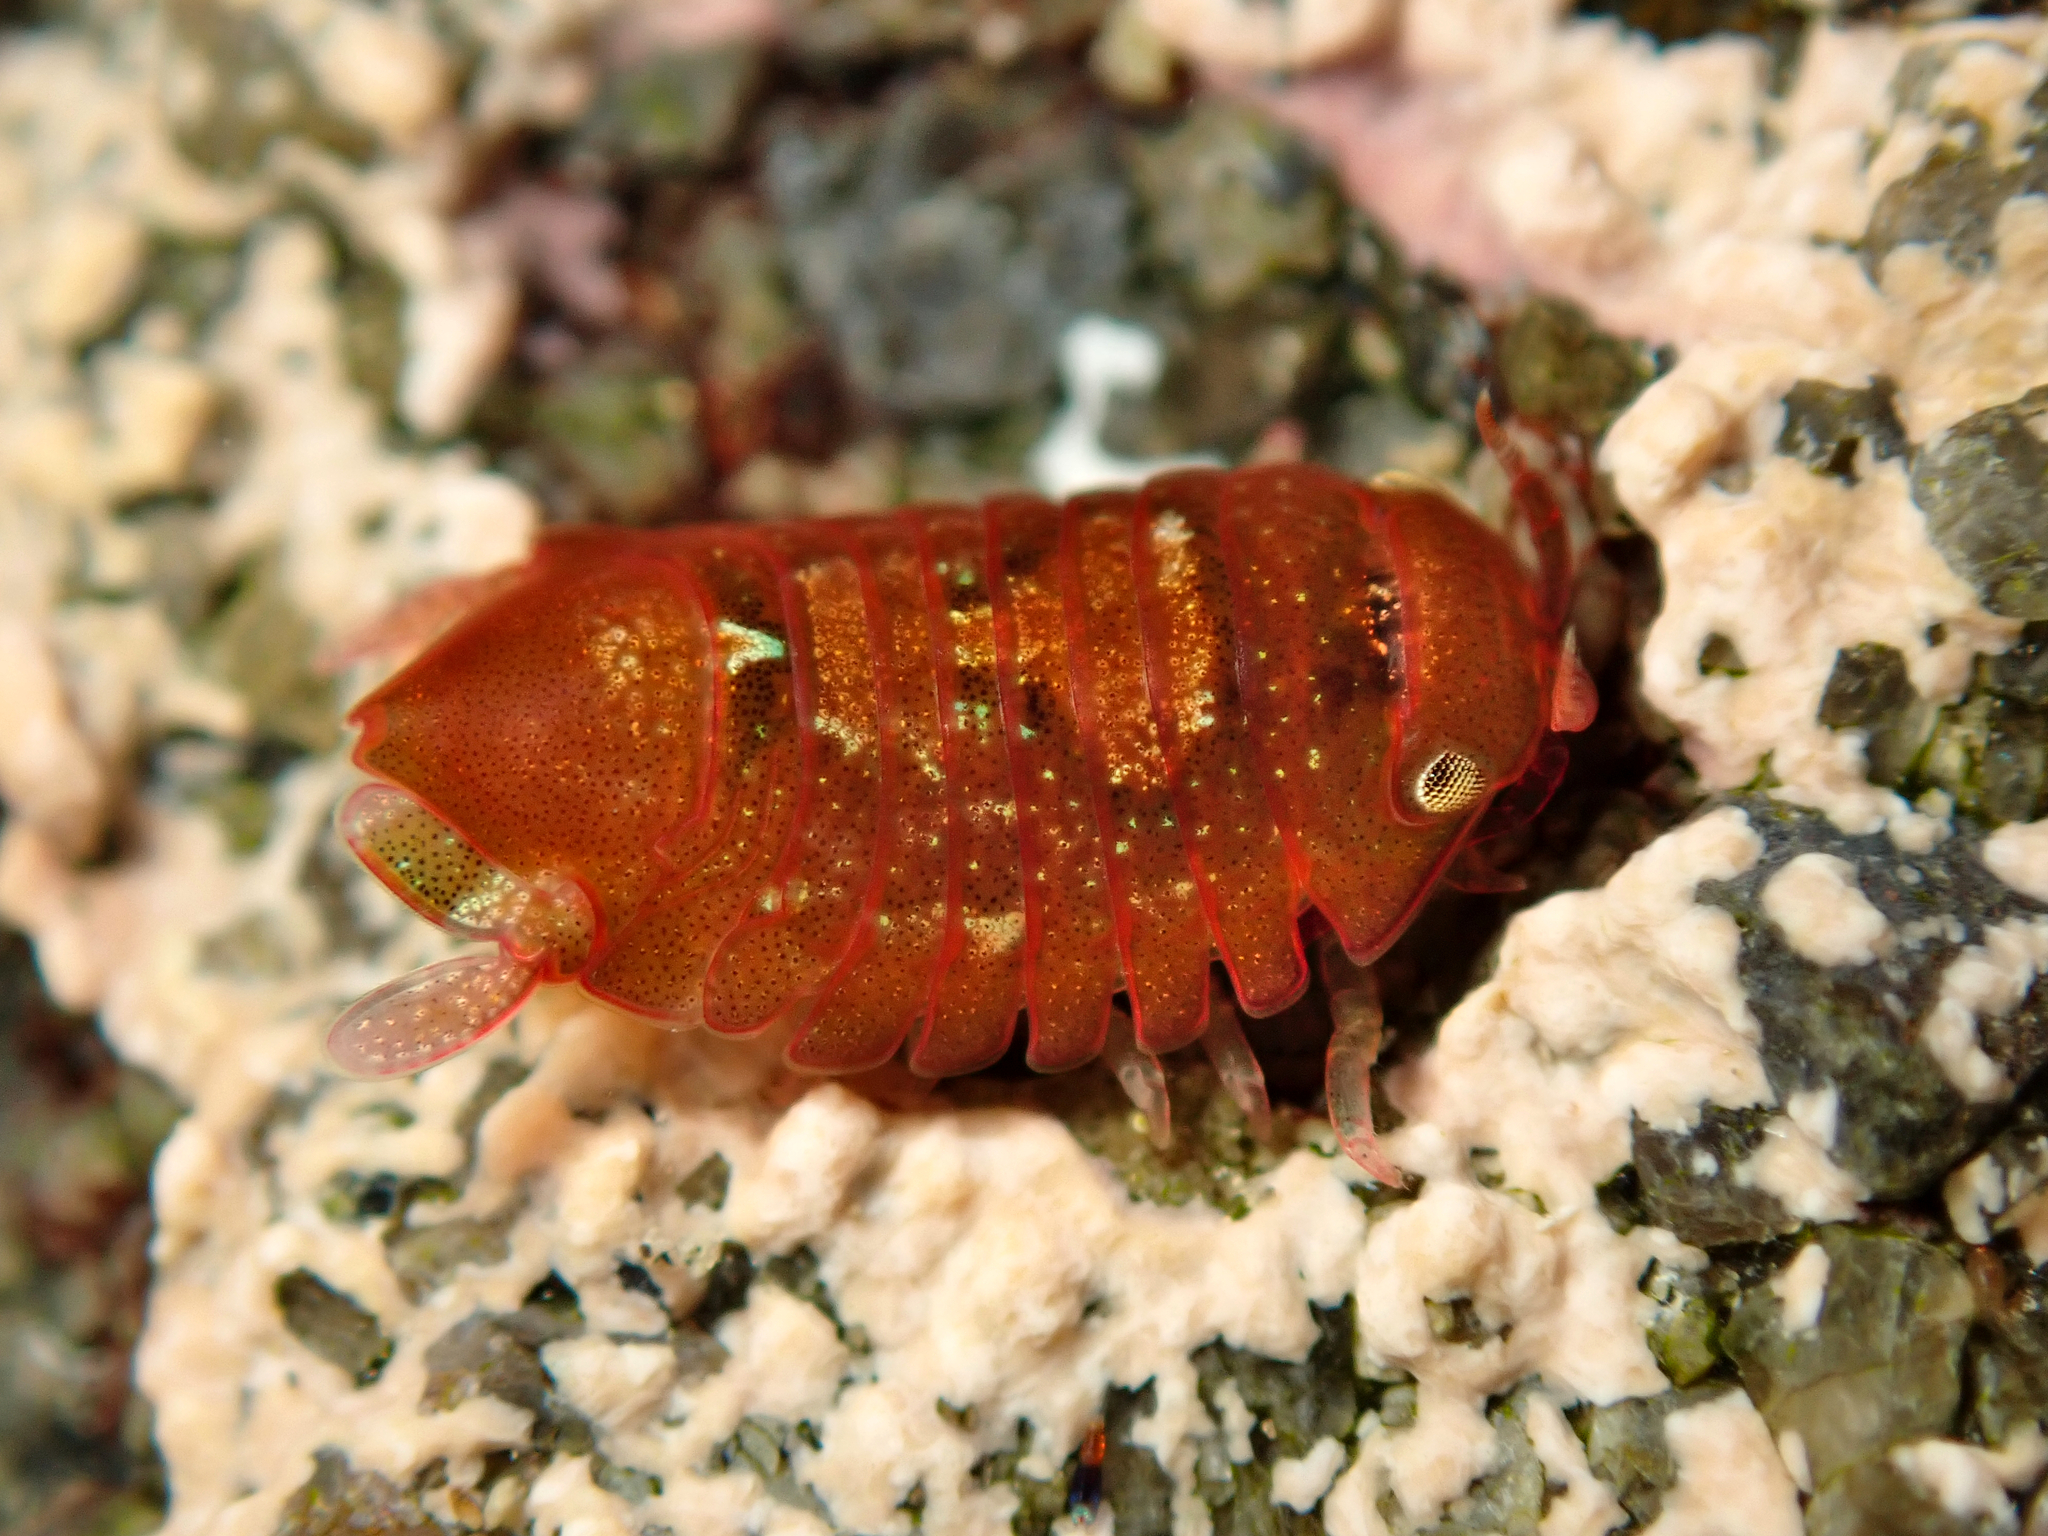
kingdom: Animalia
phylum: Arthropoda
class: Malacostraca
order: Isopoda
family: Sphaeromatidae
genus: Ischyromene
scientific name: Ischyromene huttoni
